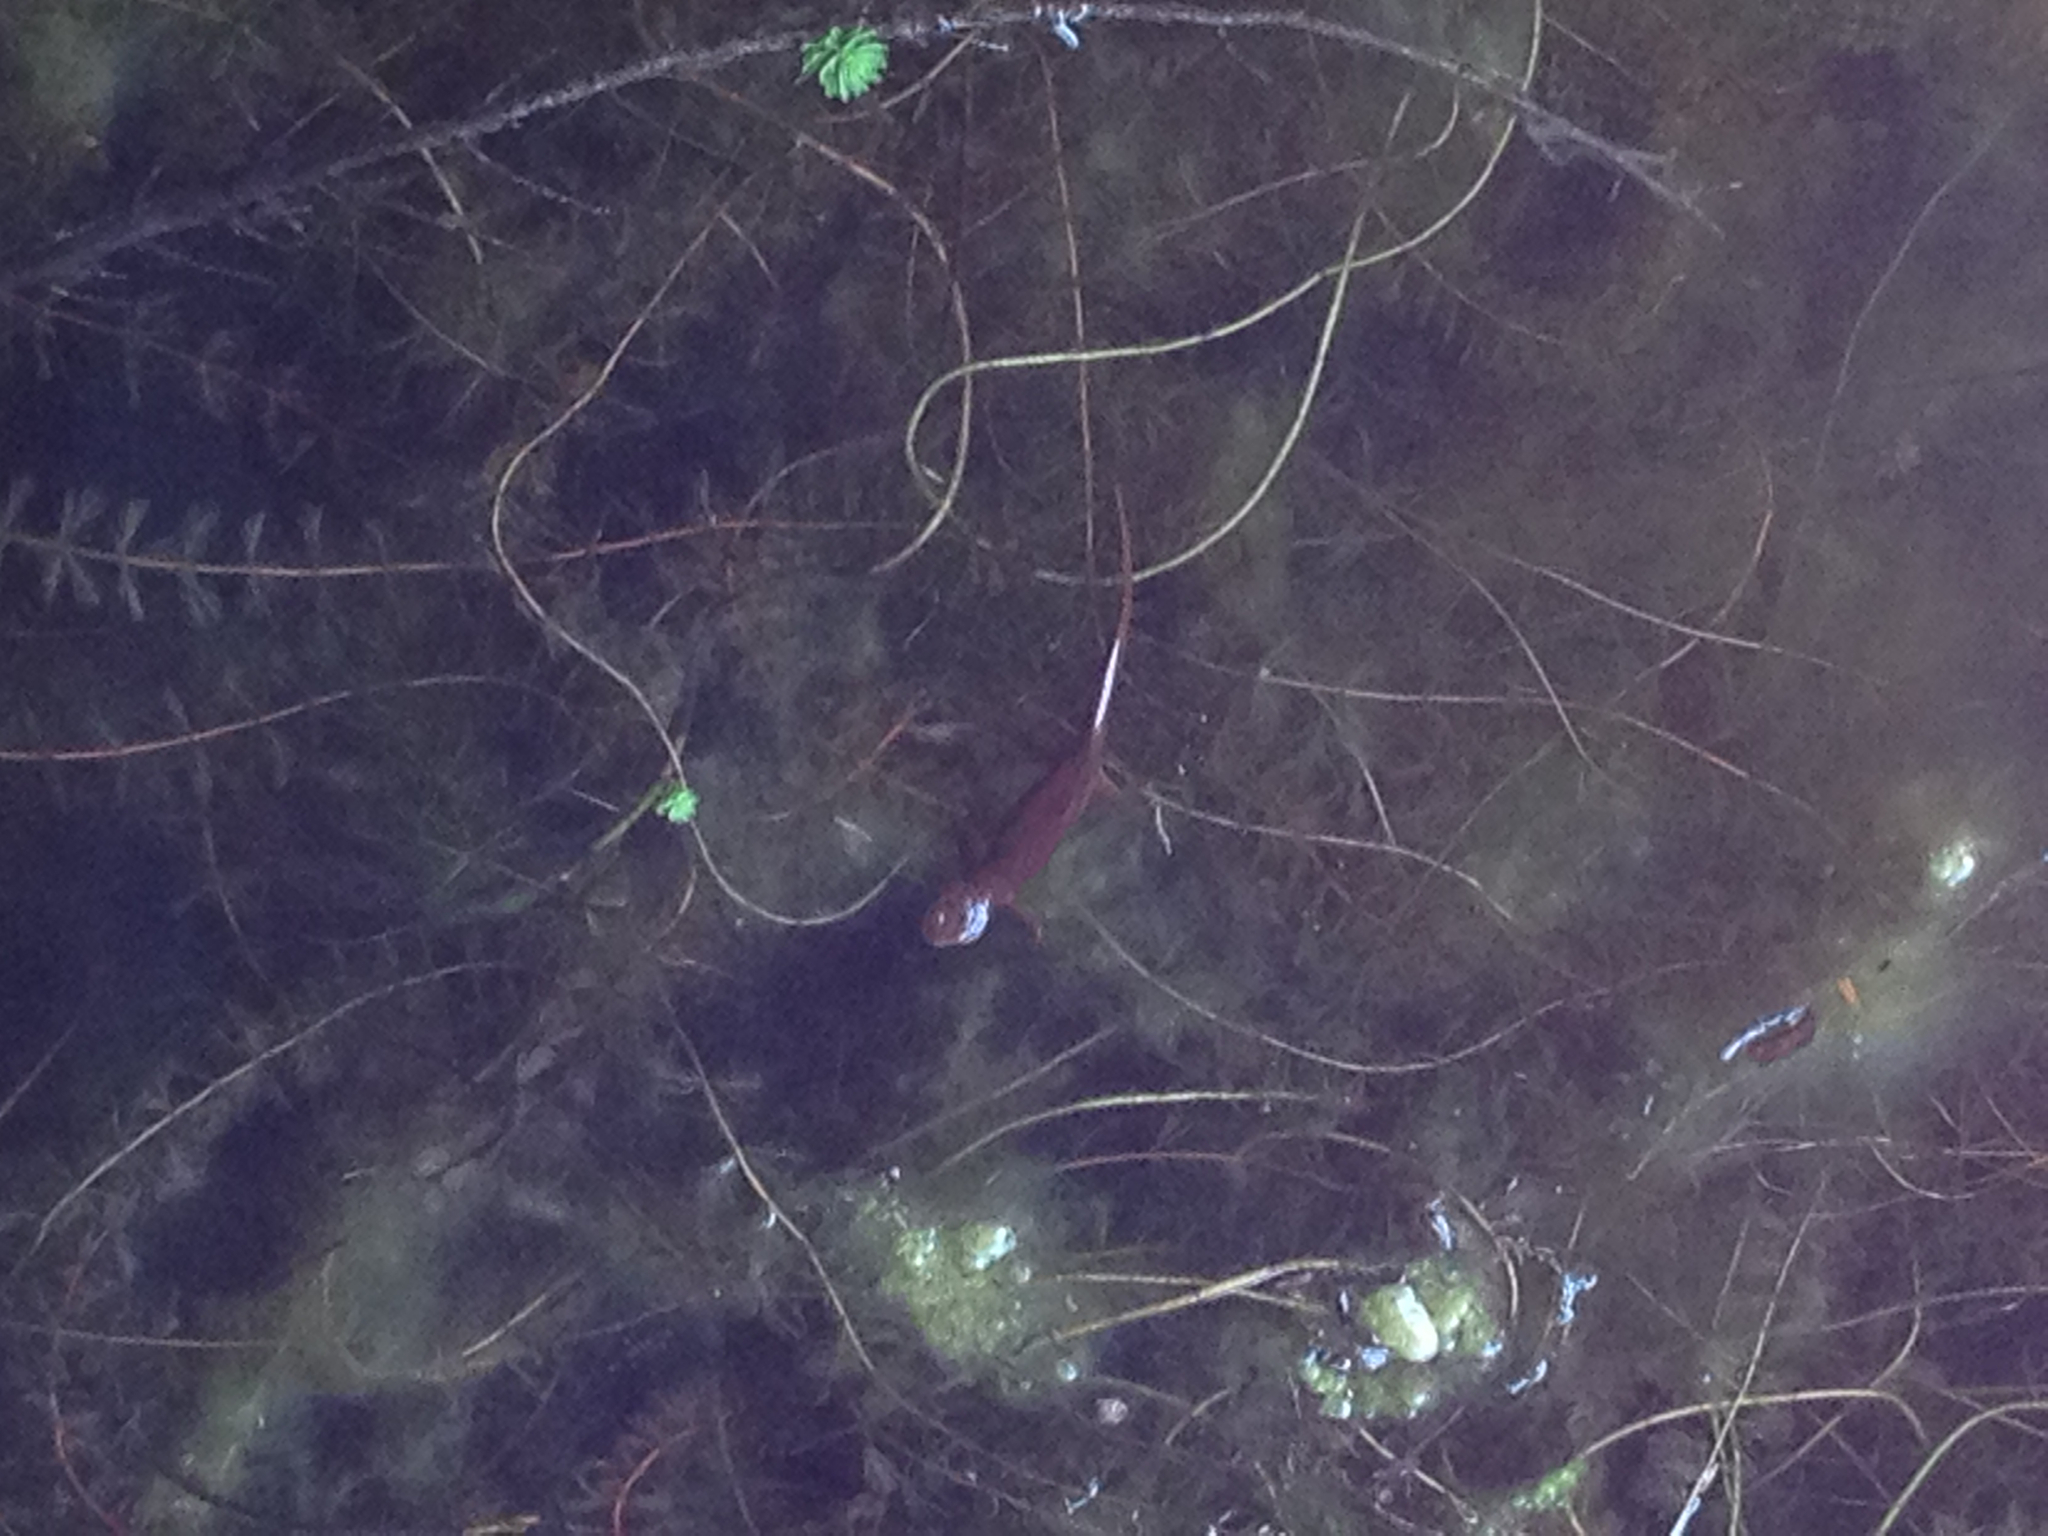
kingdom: Animalia
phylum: Chordata
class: Amphibia
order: Caudata
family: Salamandridae
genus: Taricha
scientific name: Taricha torosa
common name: California newt
